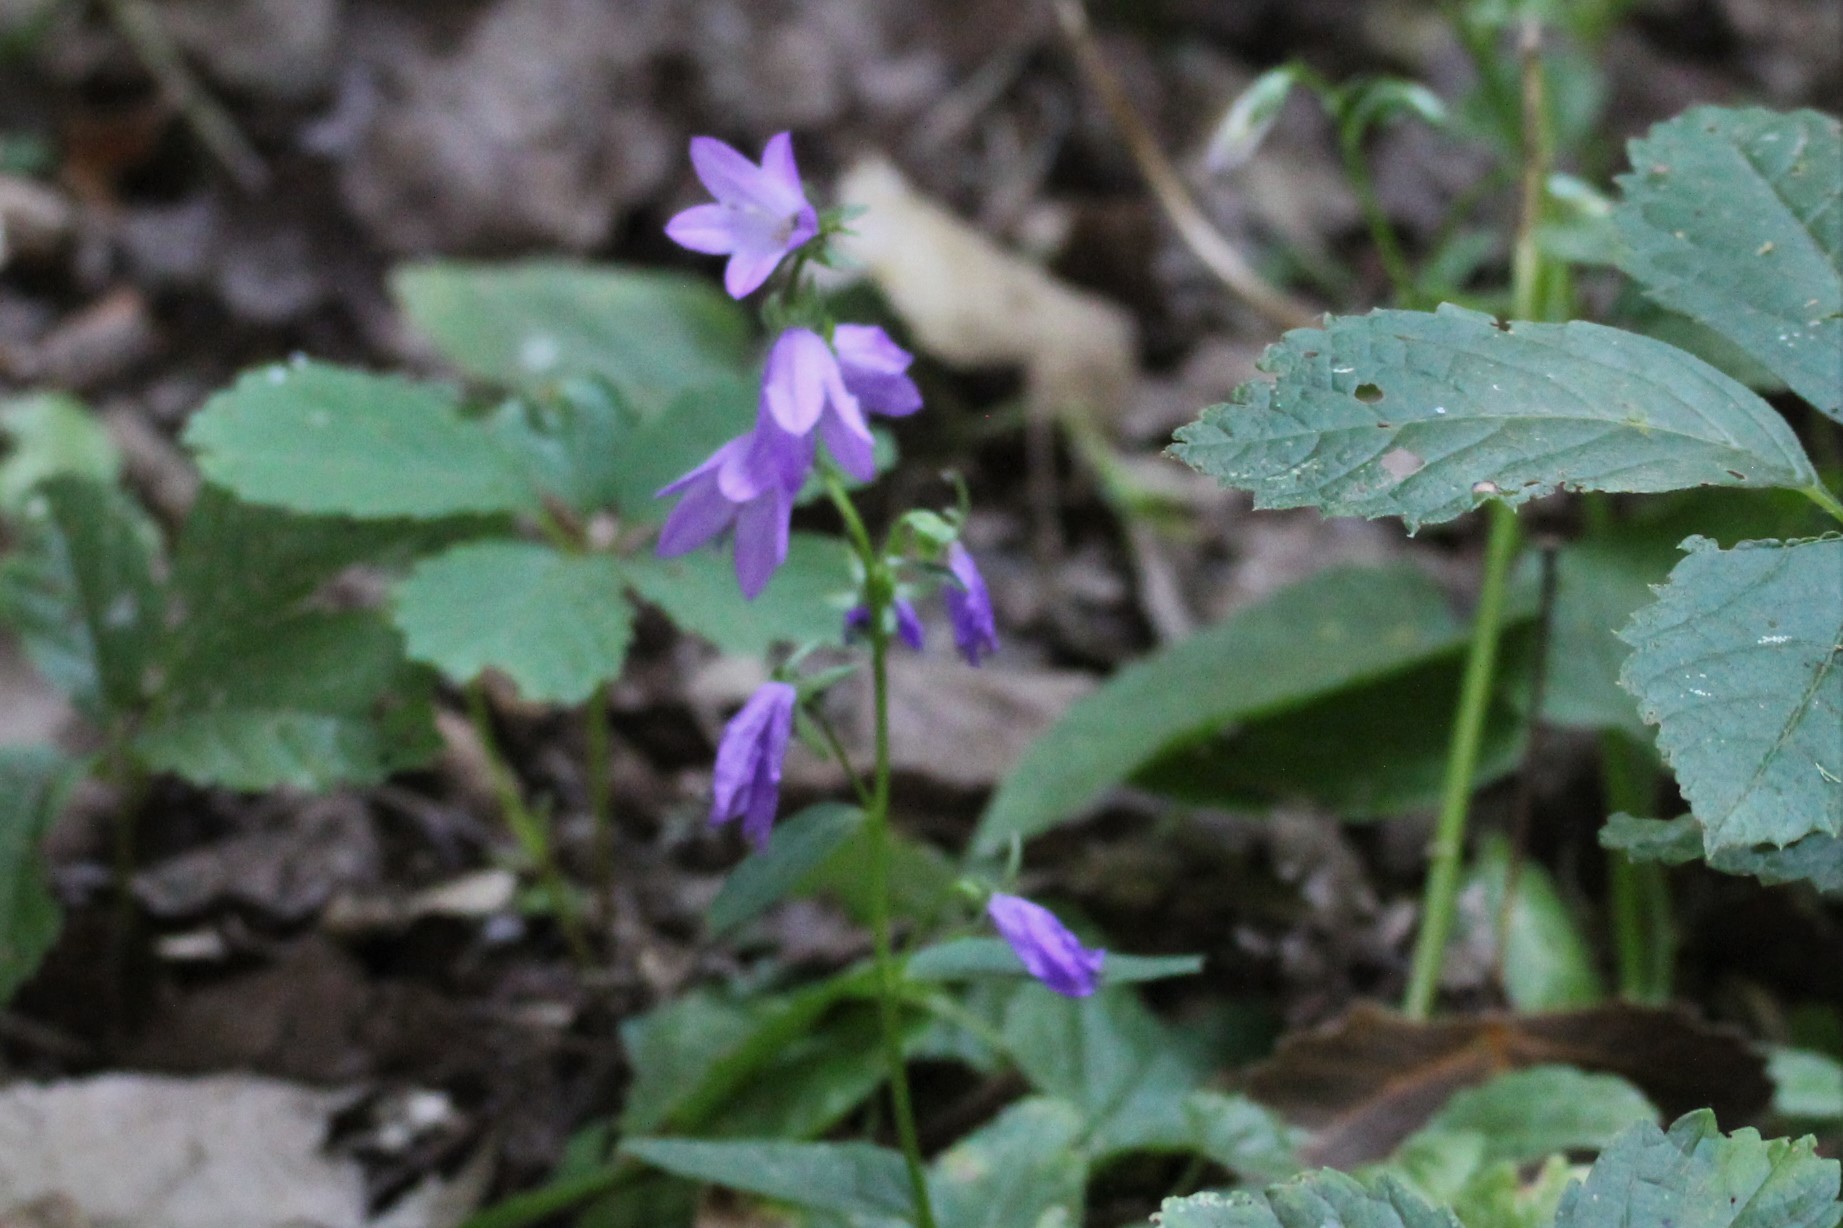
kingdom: Plantae
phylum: Tracheophyta
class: Magnoliopsida
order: Asterales
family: Campanulaceae
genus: Campanula
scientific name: Campanula rapunculoides
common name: Creeping bellflower
